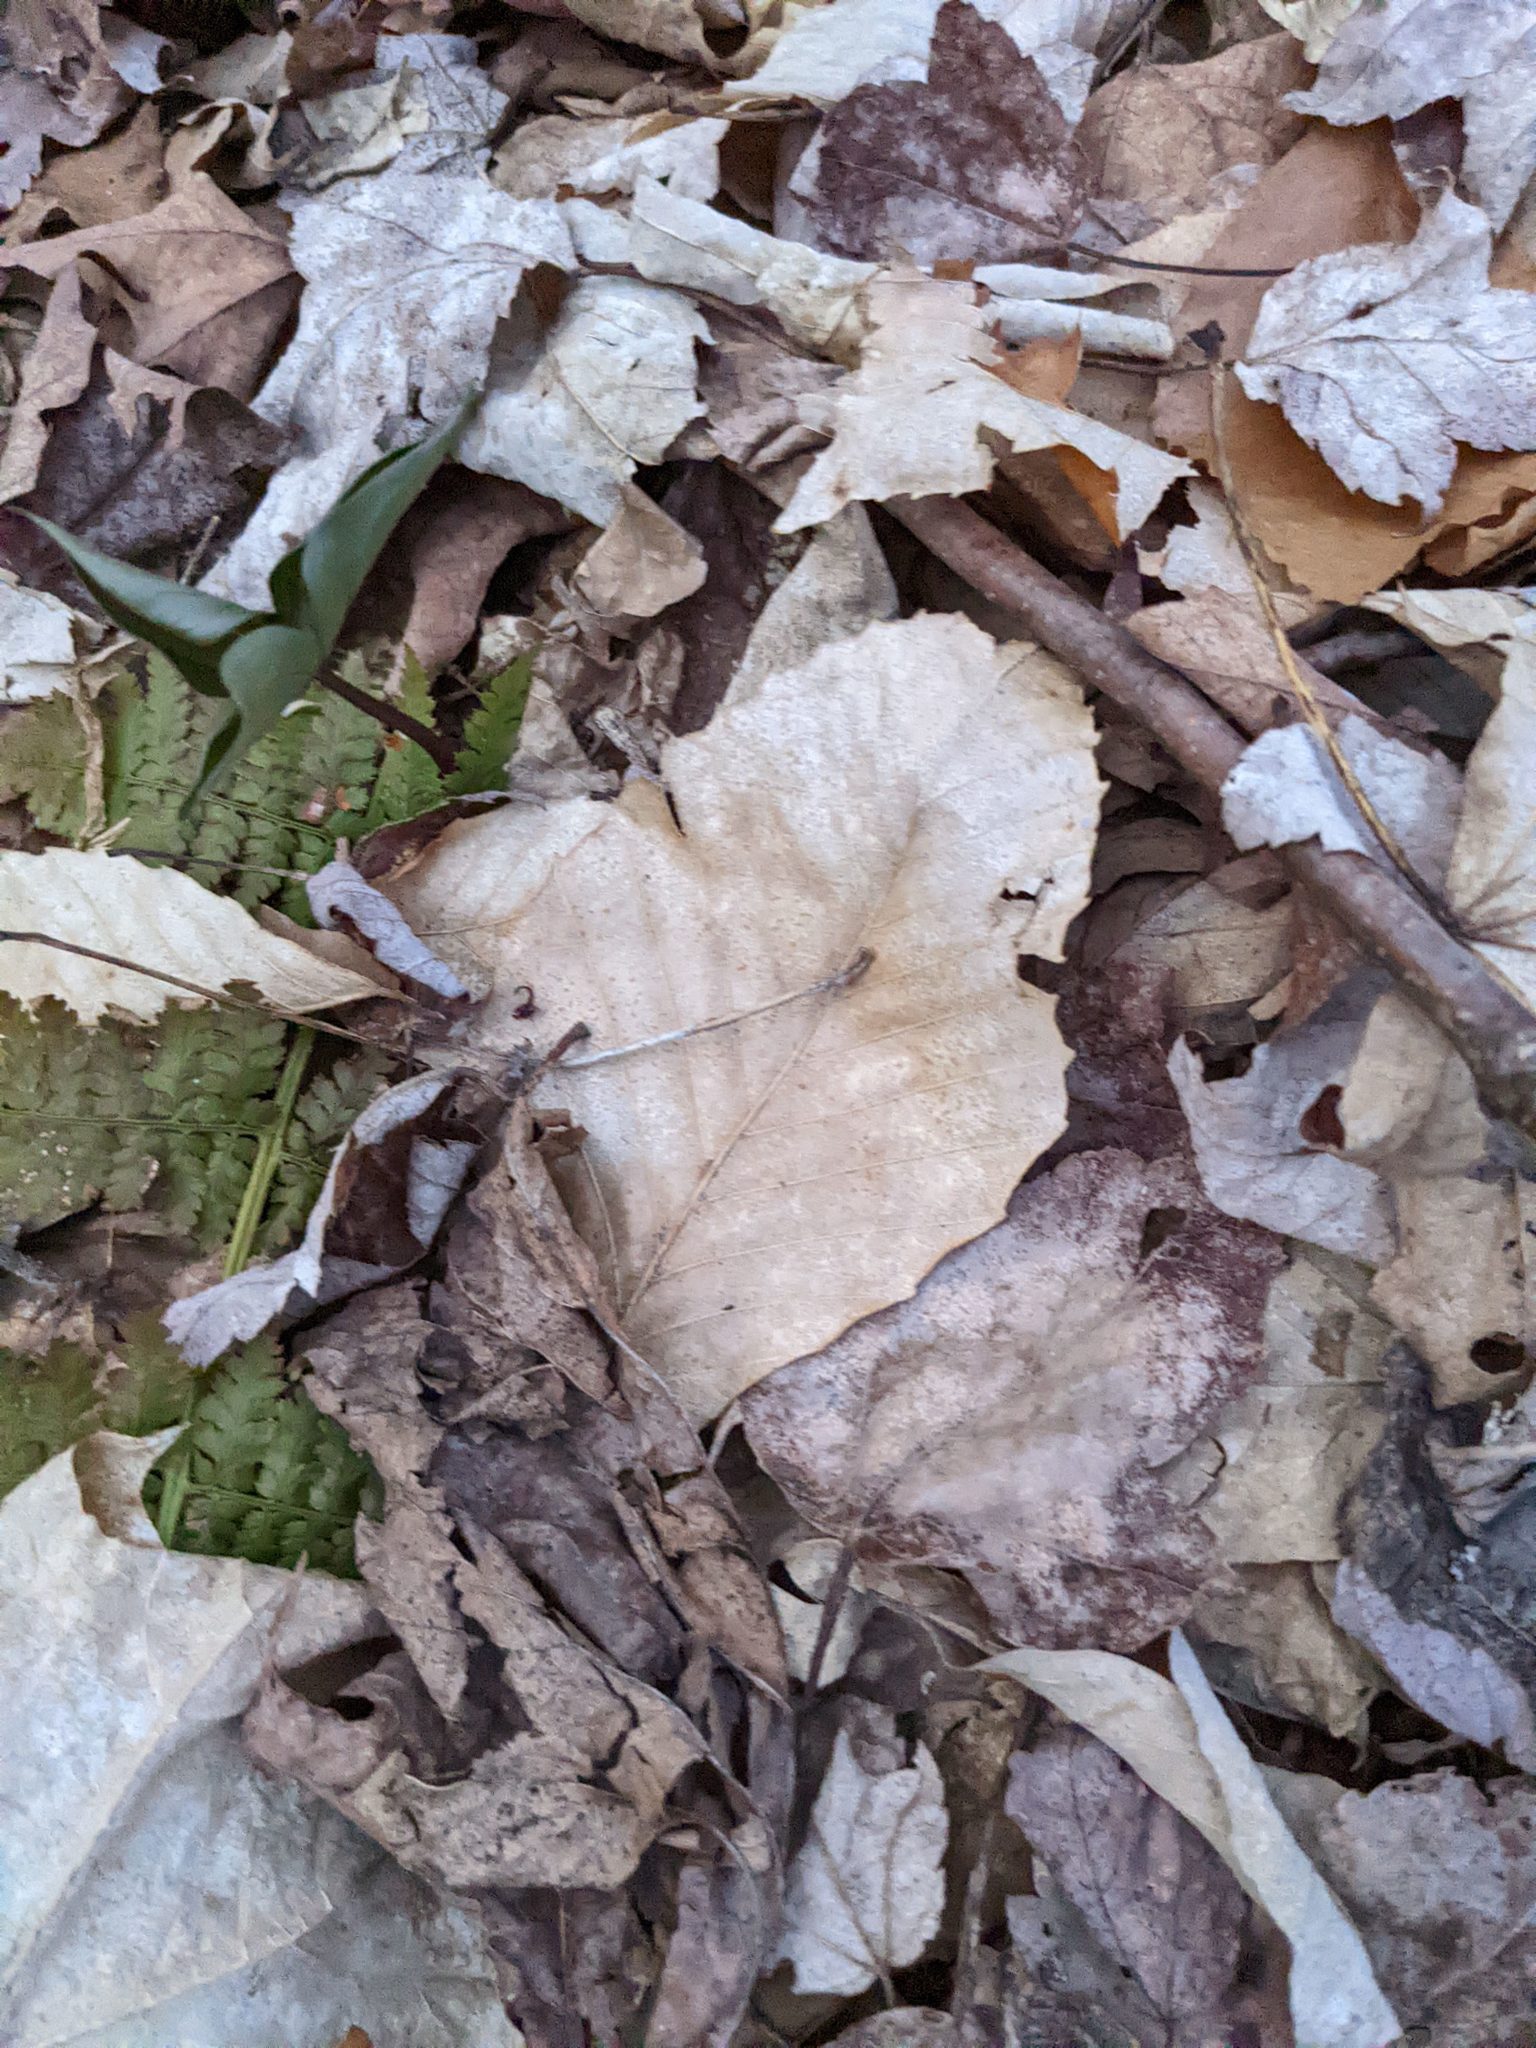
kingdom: Plantae
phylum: Tracheophyta
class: Magnoliopsida
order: Fagales
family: Fagaceae
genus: Fagus
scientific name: Fagus grandifolia
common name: American beech
